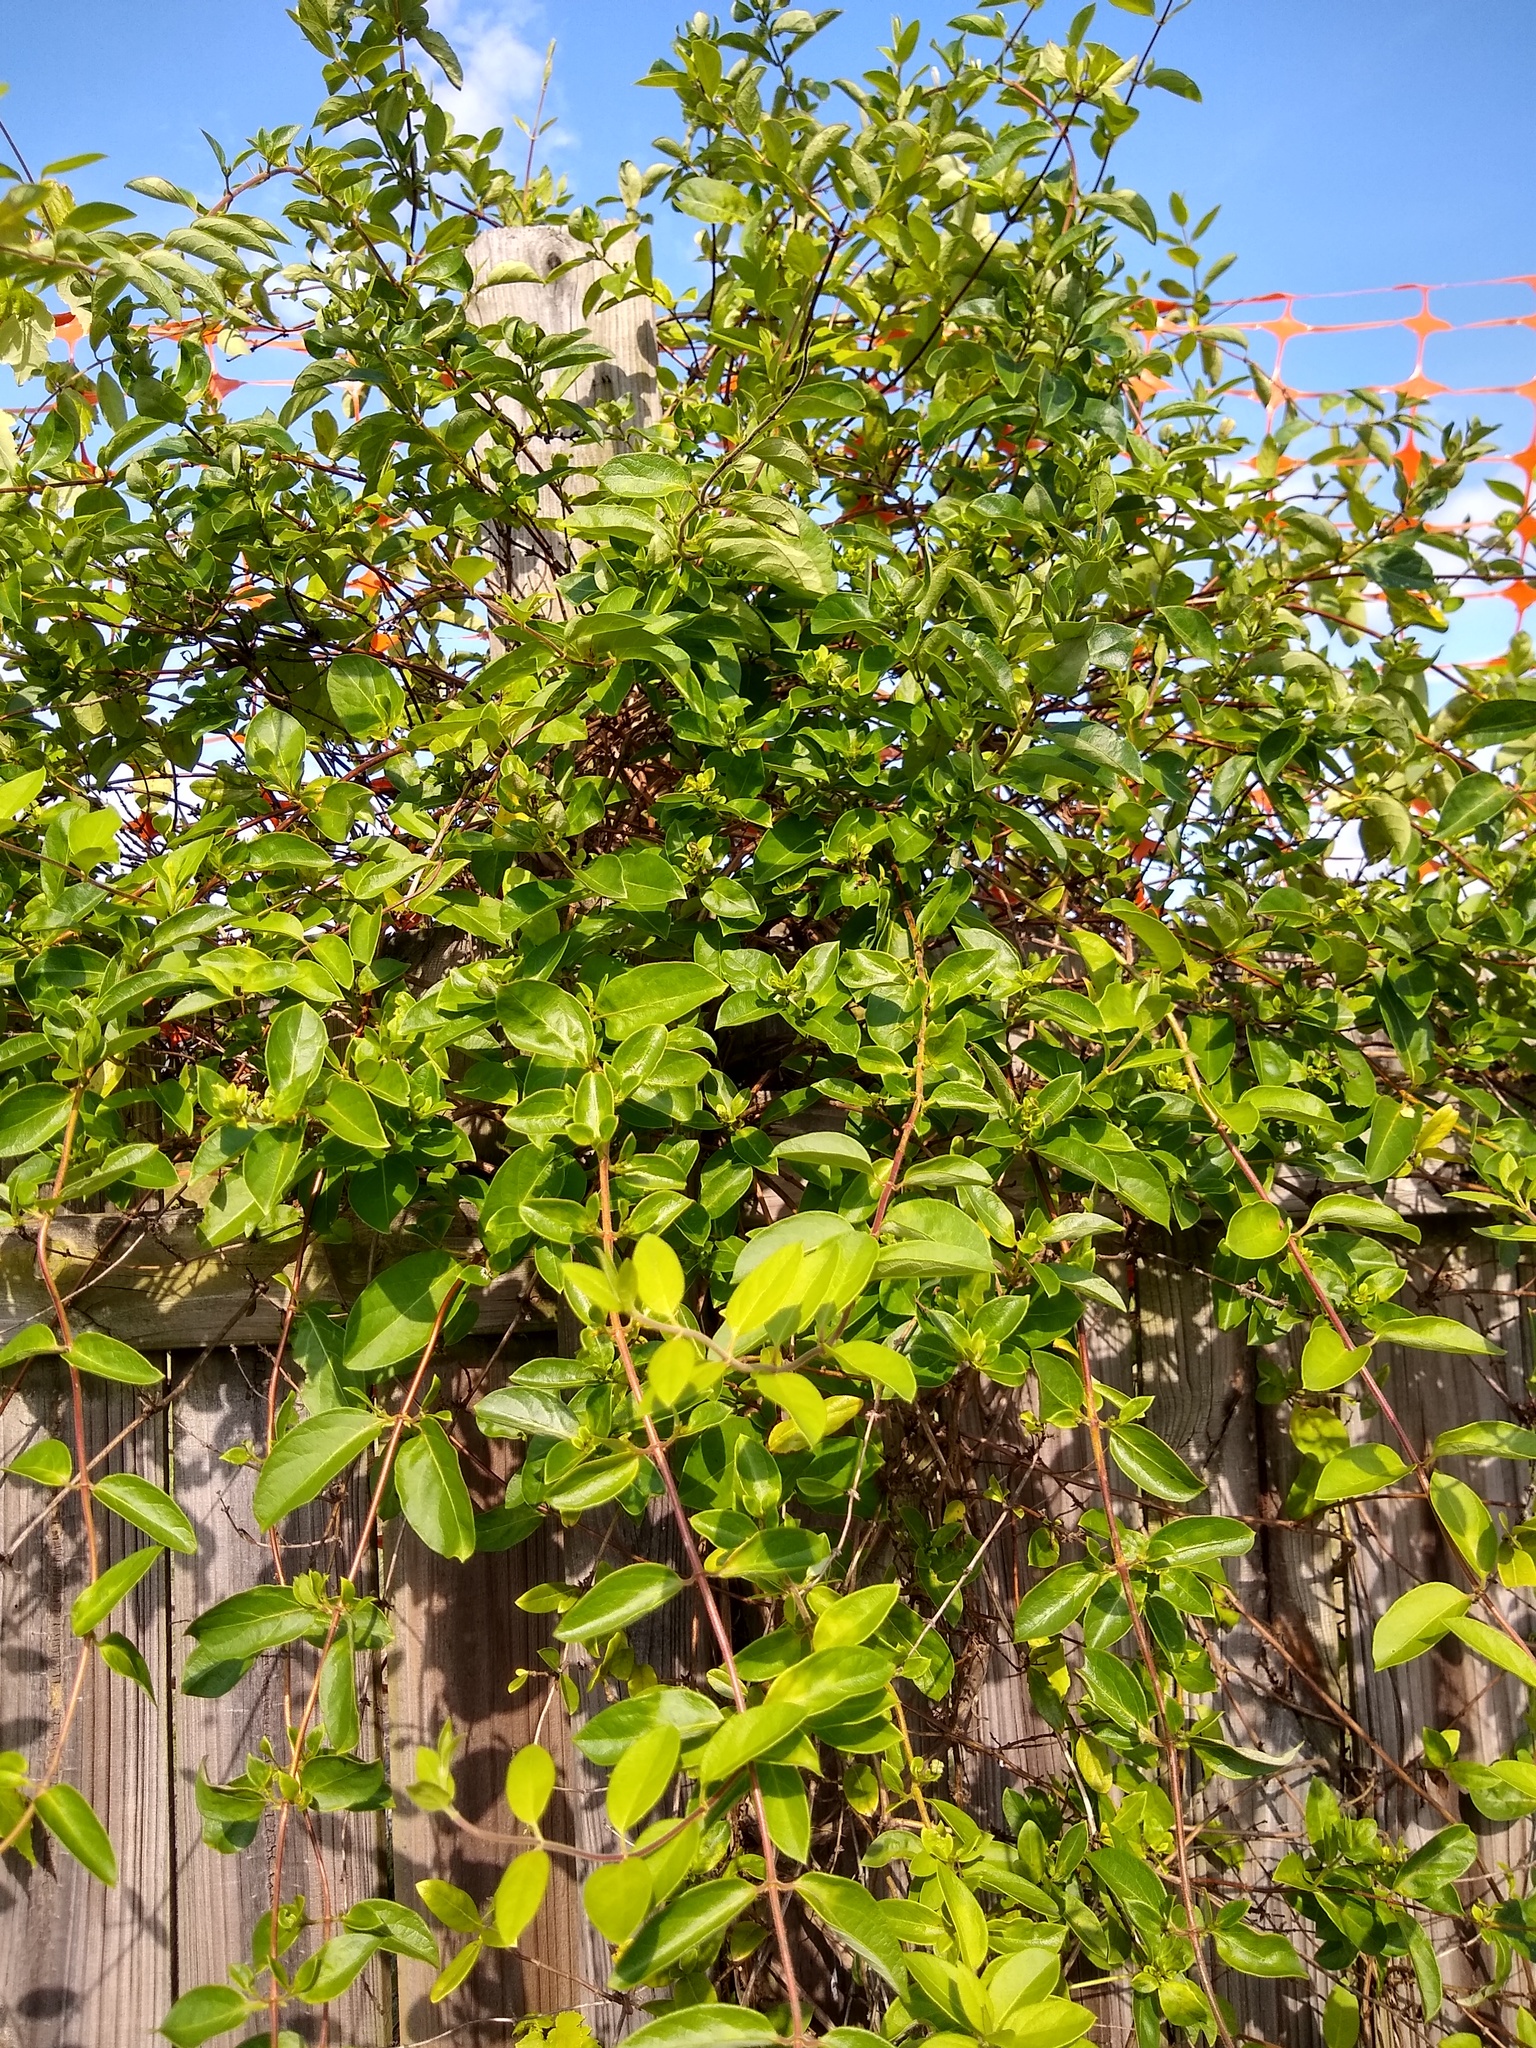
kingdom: Plantae
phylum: Tracheophyta
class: Magnoliopsida
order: Dipsacales
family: Caprifoliaceae
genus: Lonicera
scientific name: Lonicera japonica
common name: Japanese honeysuckle
